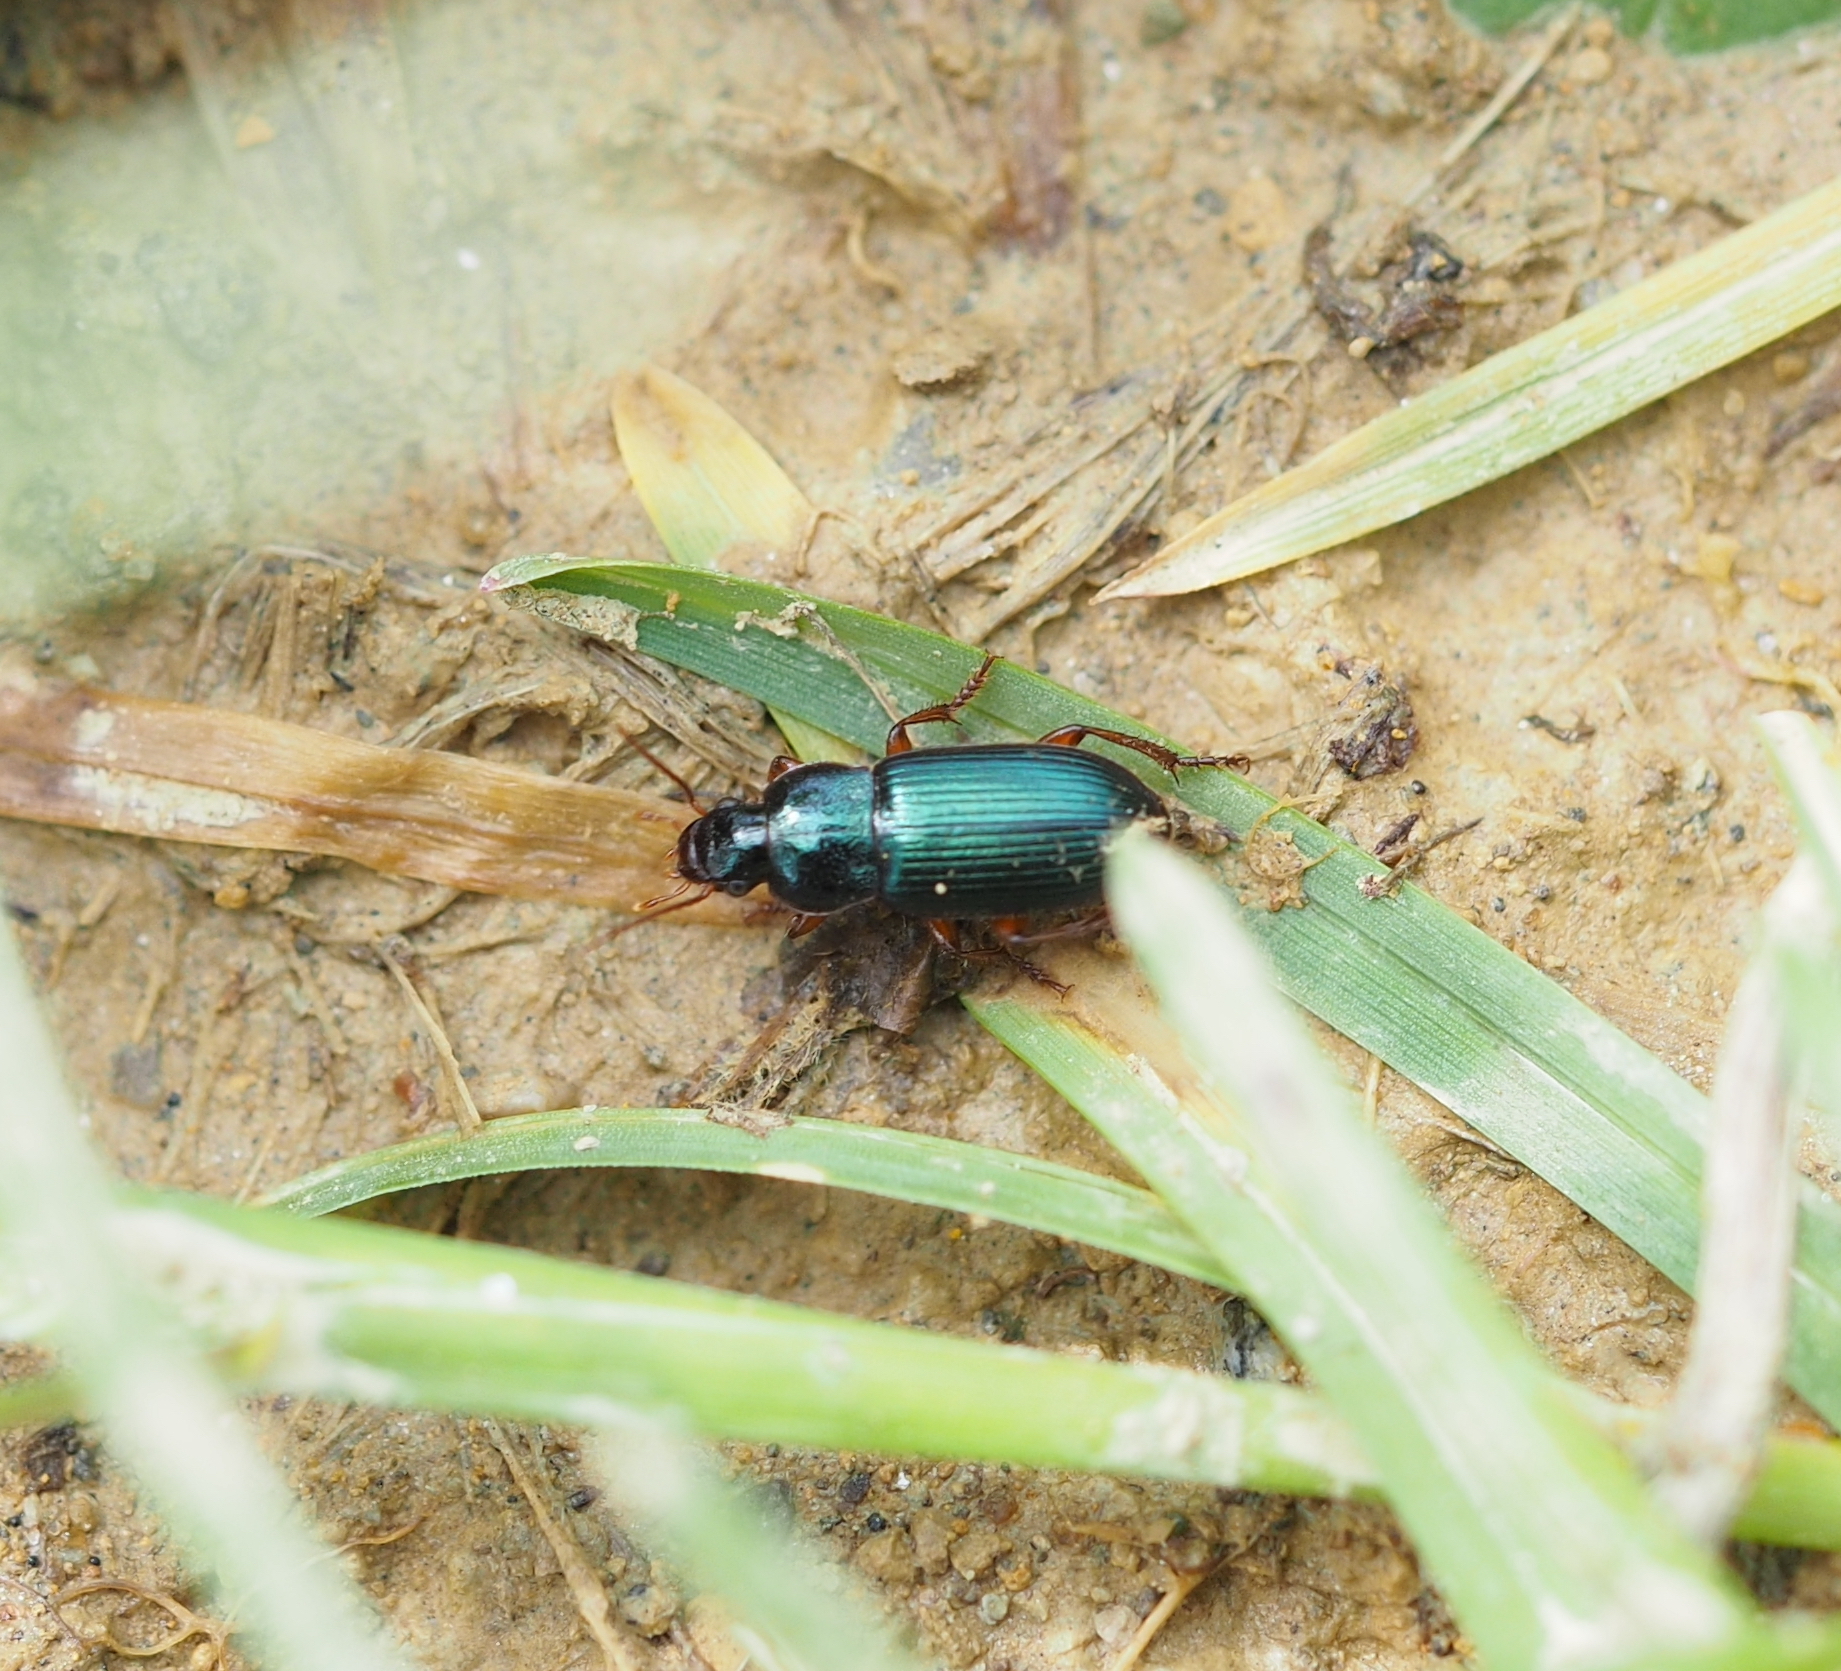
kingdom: Animalia
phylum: Arthropoda
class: Insecta
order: Coleoptera
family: Carabidae
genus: Ophonus
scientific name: Ophonus azureus
